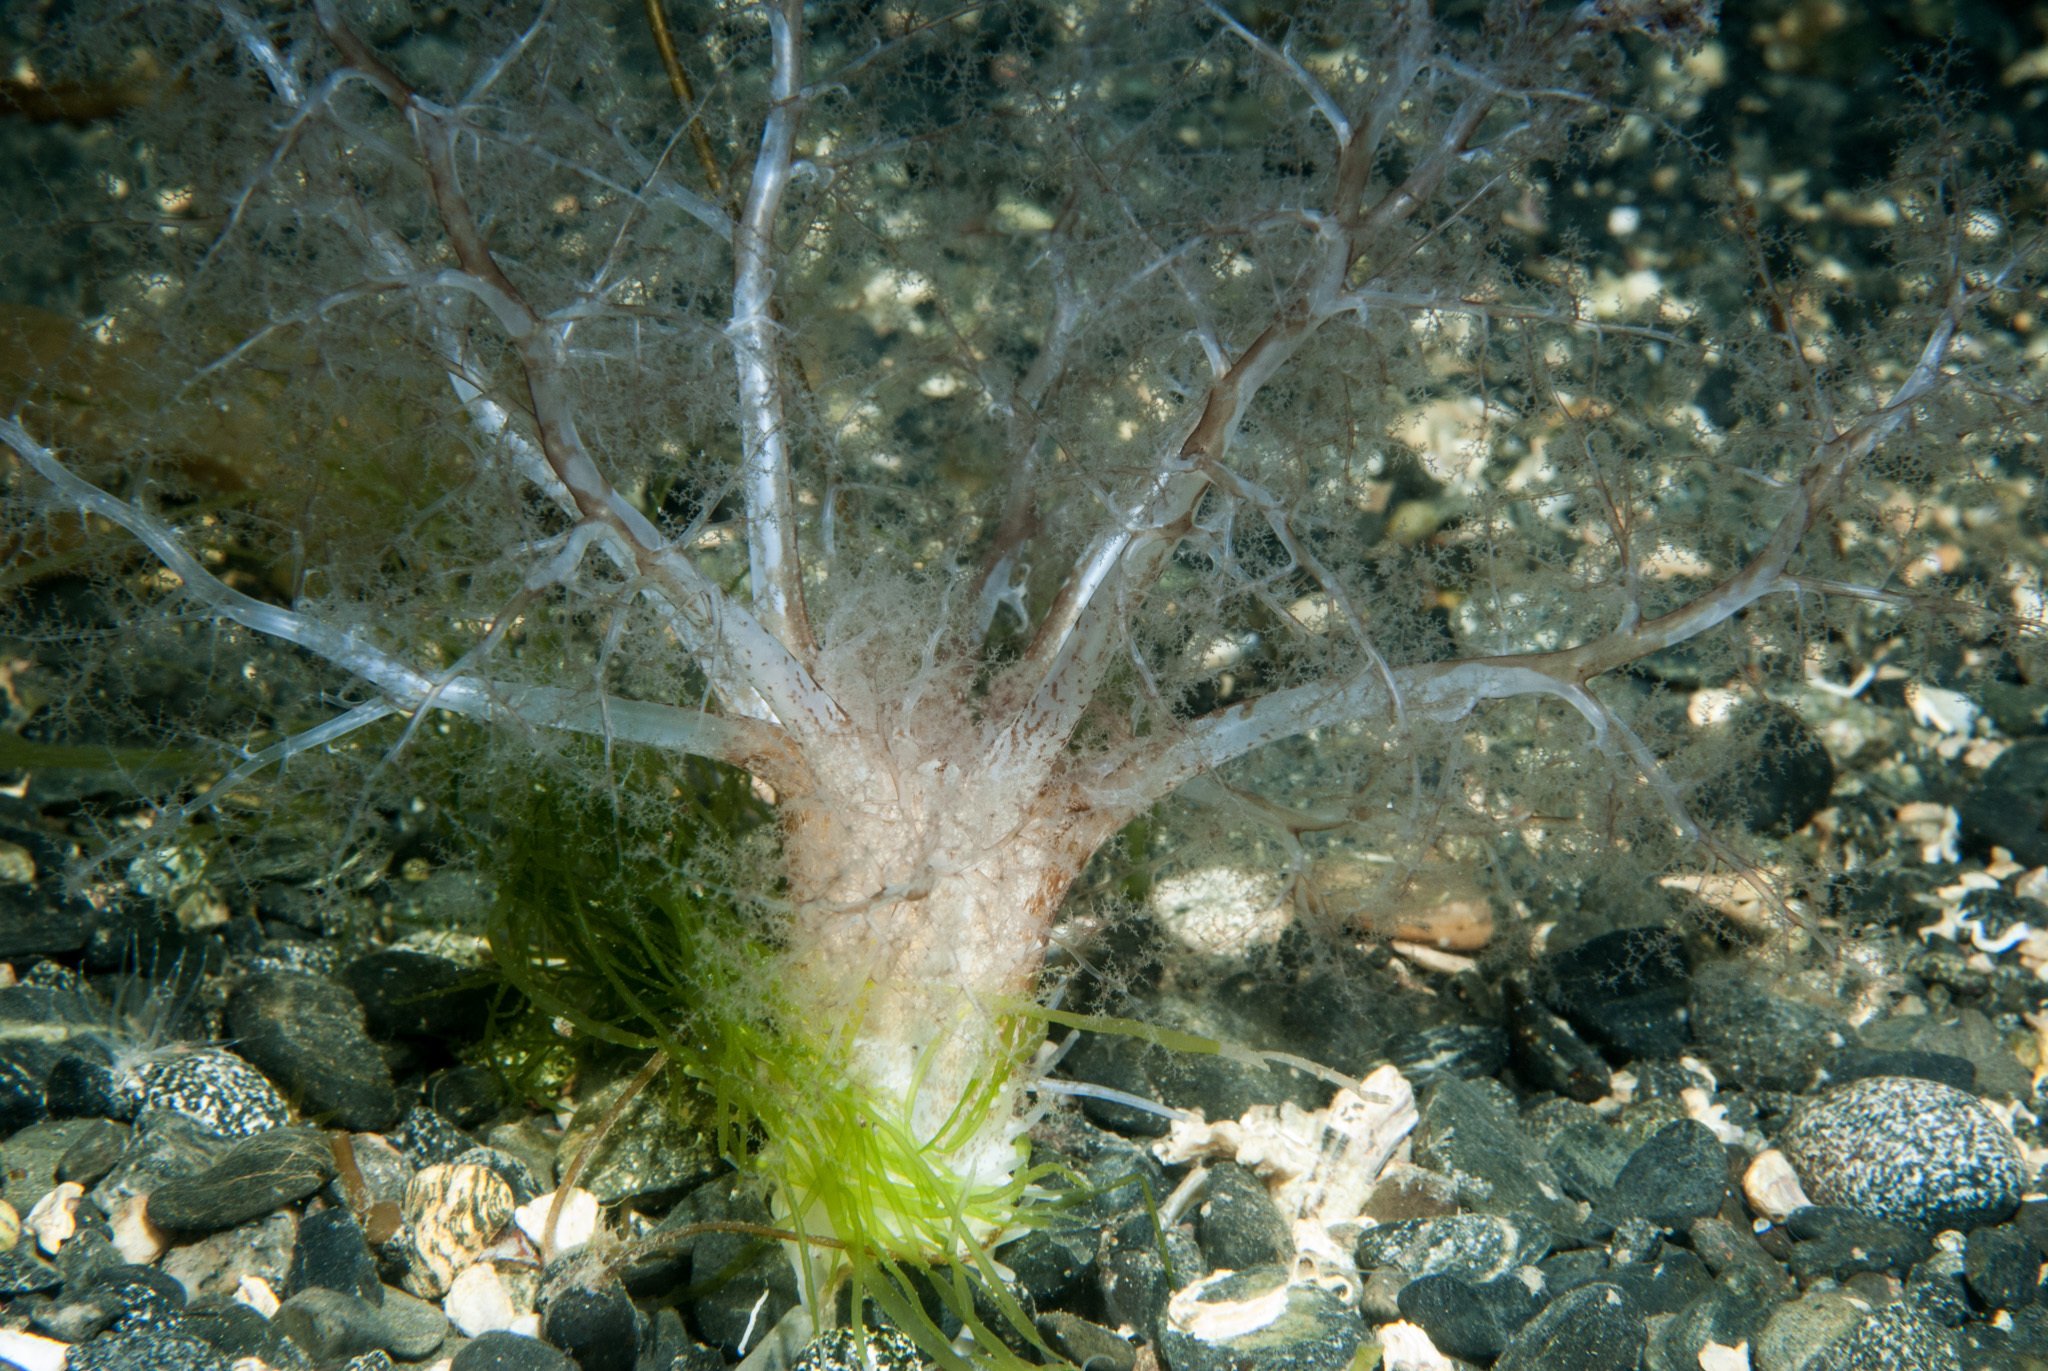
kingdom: Animalia
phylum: Echinodermata
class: Holothuroidea
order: Dendrochirotida
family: Phyllophoridae
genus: Neopentadactyla
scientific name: Neopentadactyla mixta
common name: Gravel sea cucumber
